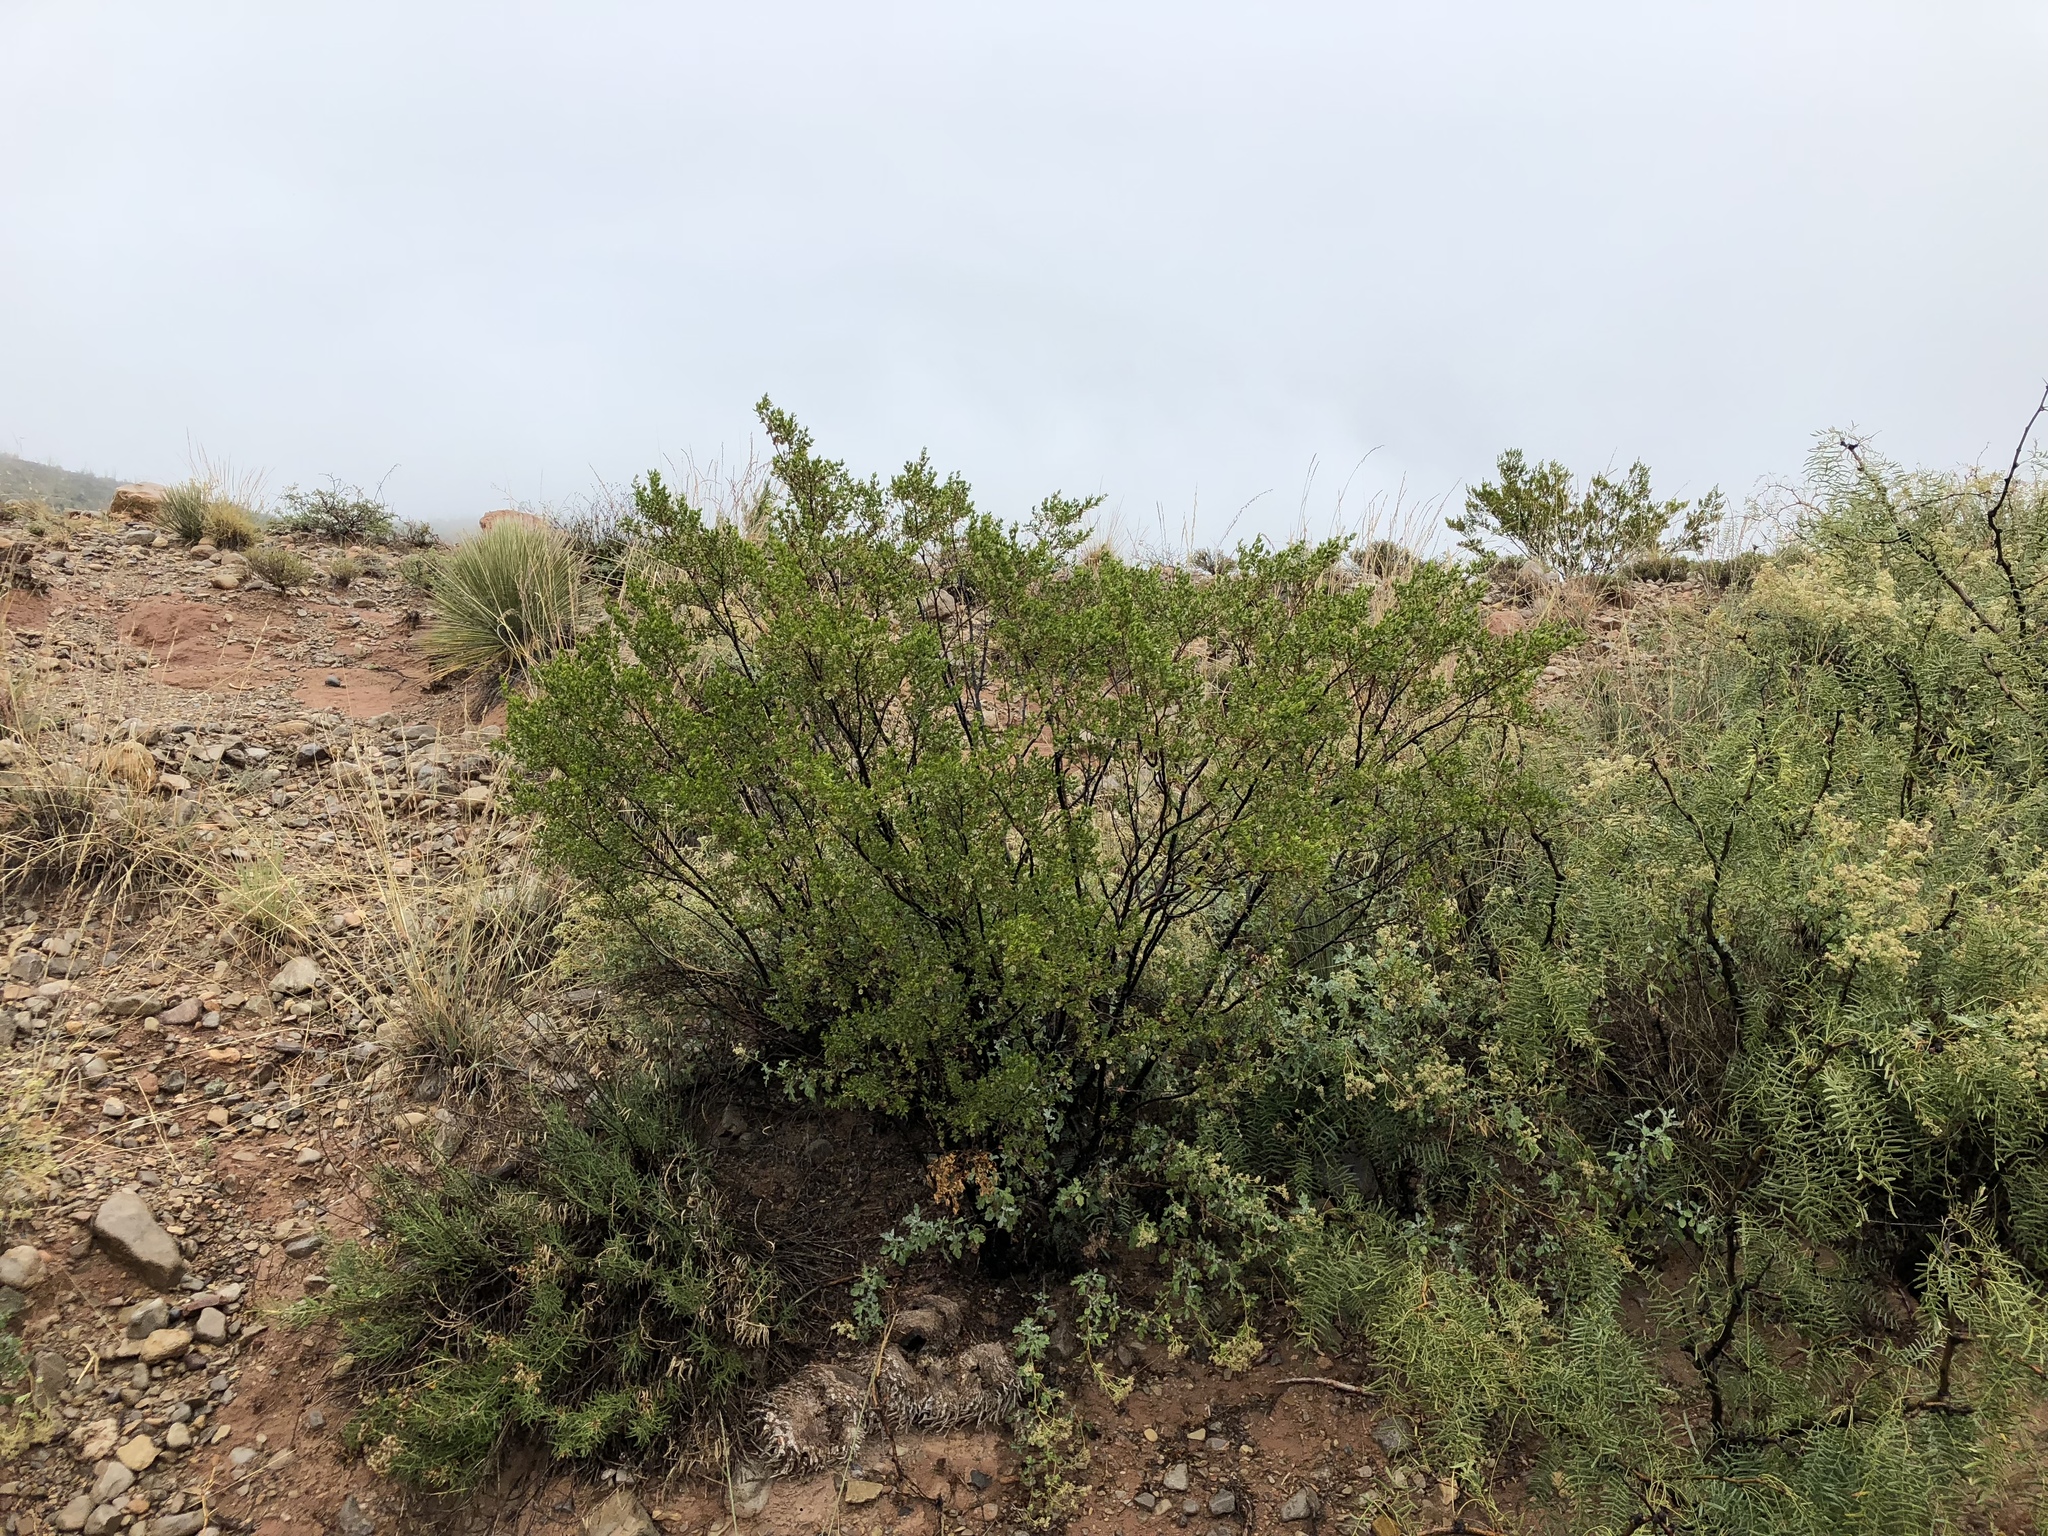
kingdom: Plantae
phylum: Tracheophyta
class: Magnoliopsida
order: Zygophyllales
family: Zygophyllaceae
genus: Larrea
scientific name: Larrea tridentata
